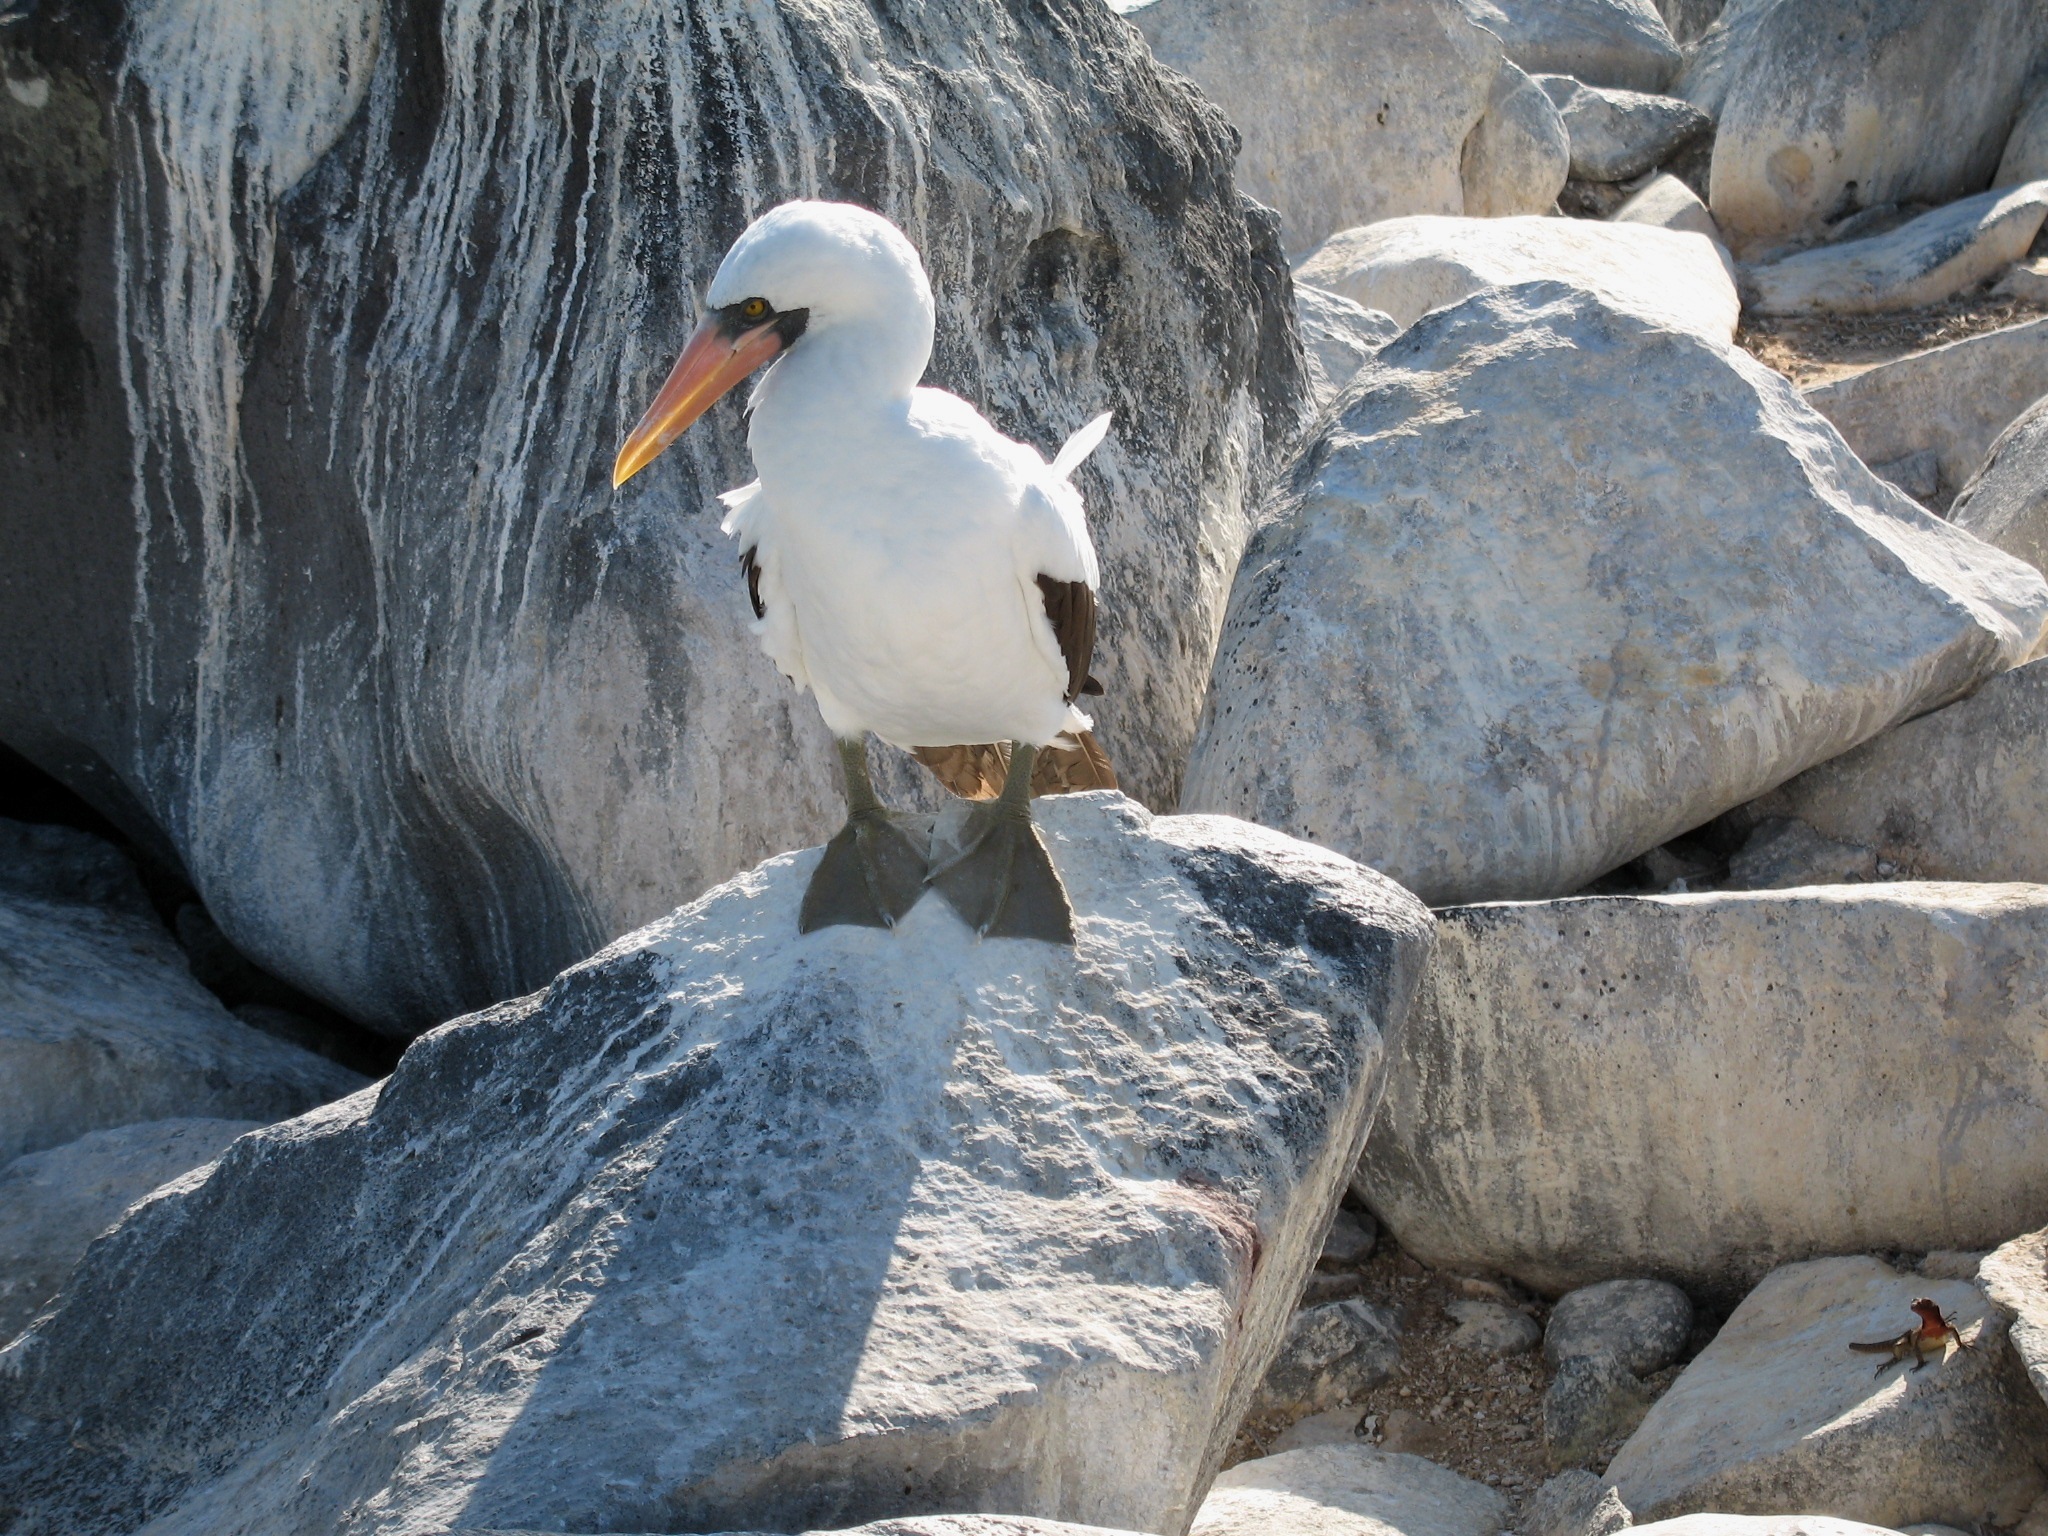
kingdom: Animalia
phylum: Chordata
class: Aves
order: Suliformes
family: Sulidae
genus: Sula
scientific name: Sula granti
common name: Nazca booby
